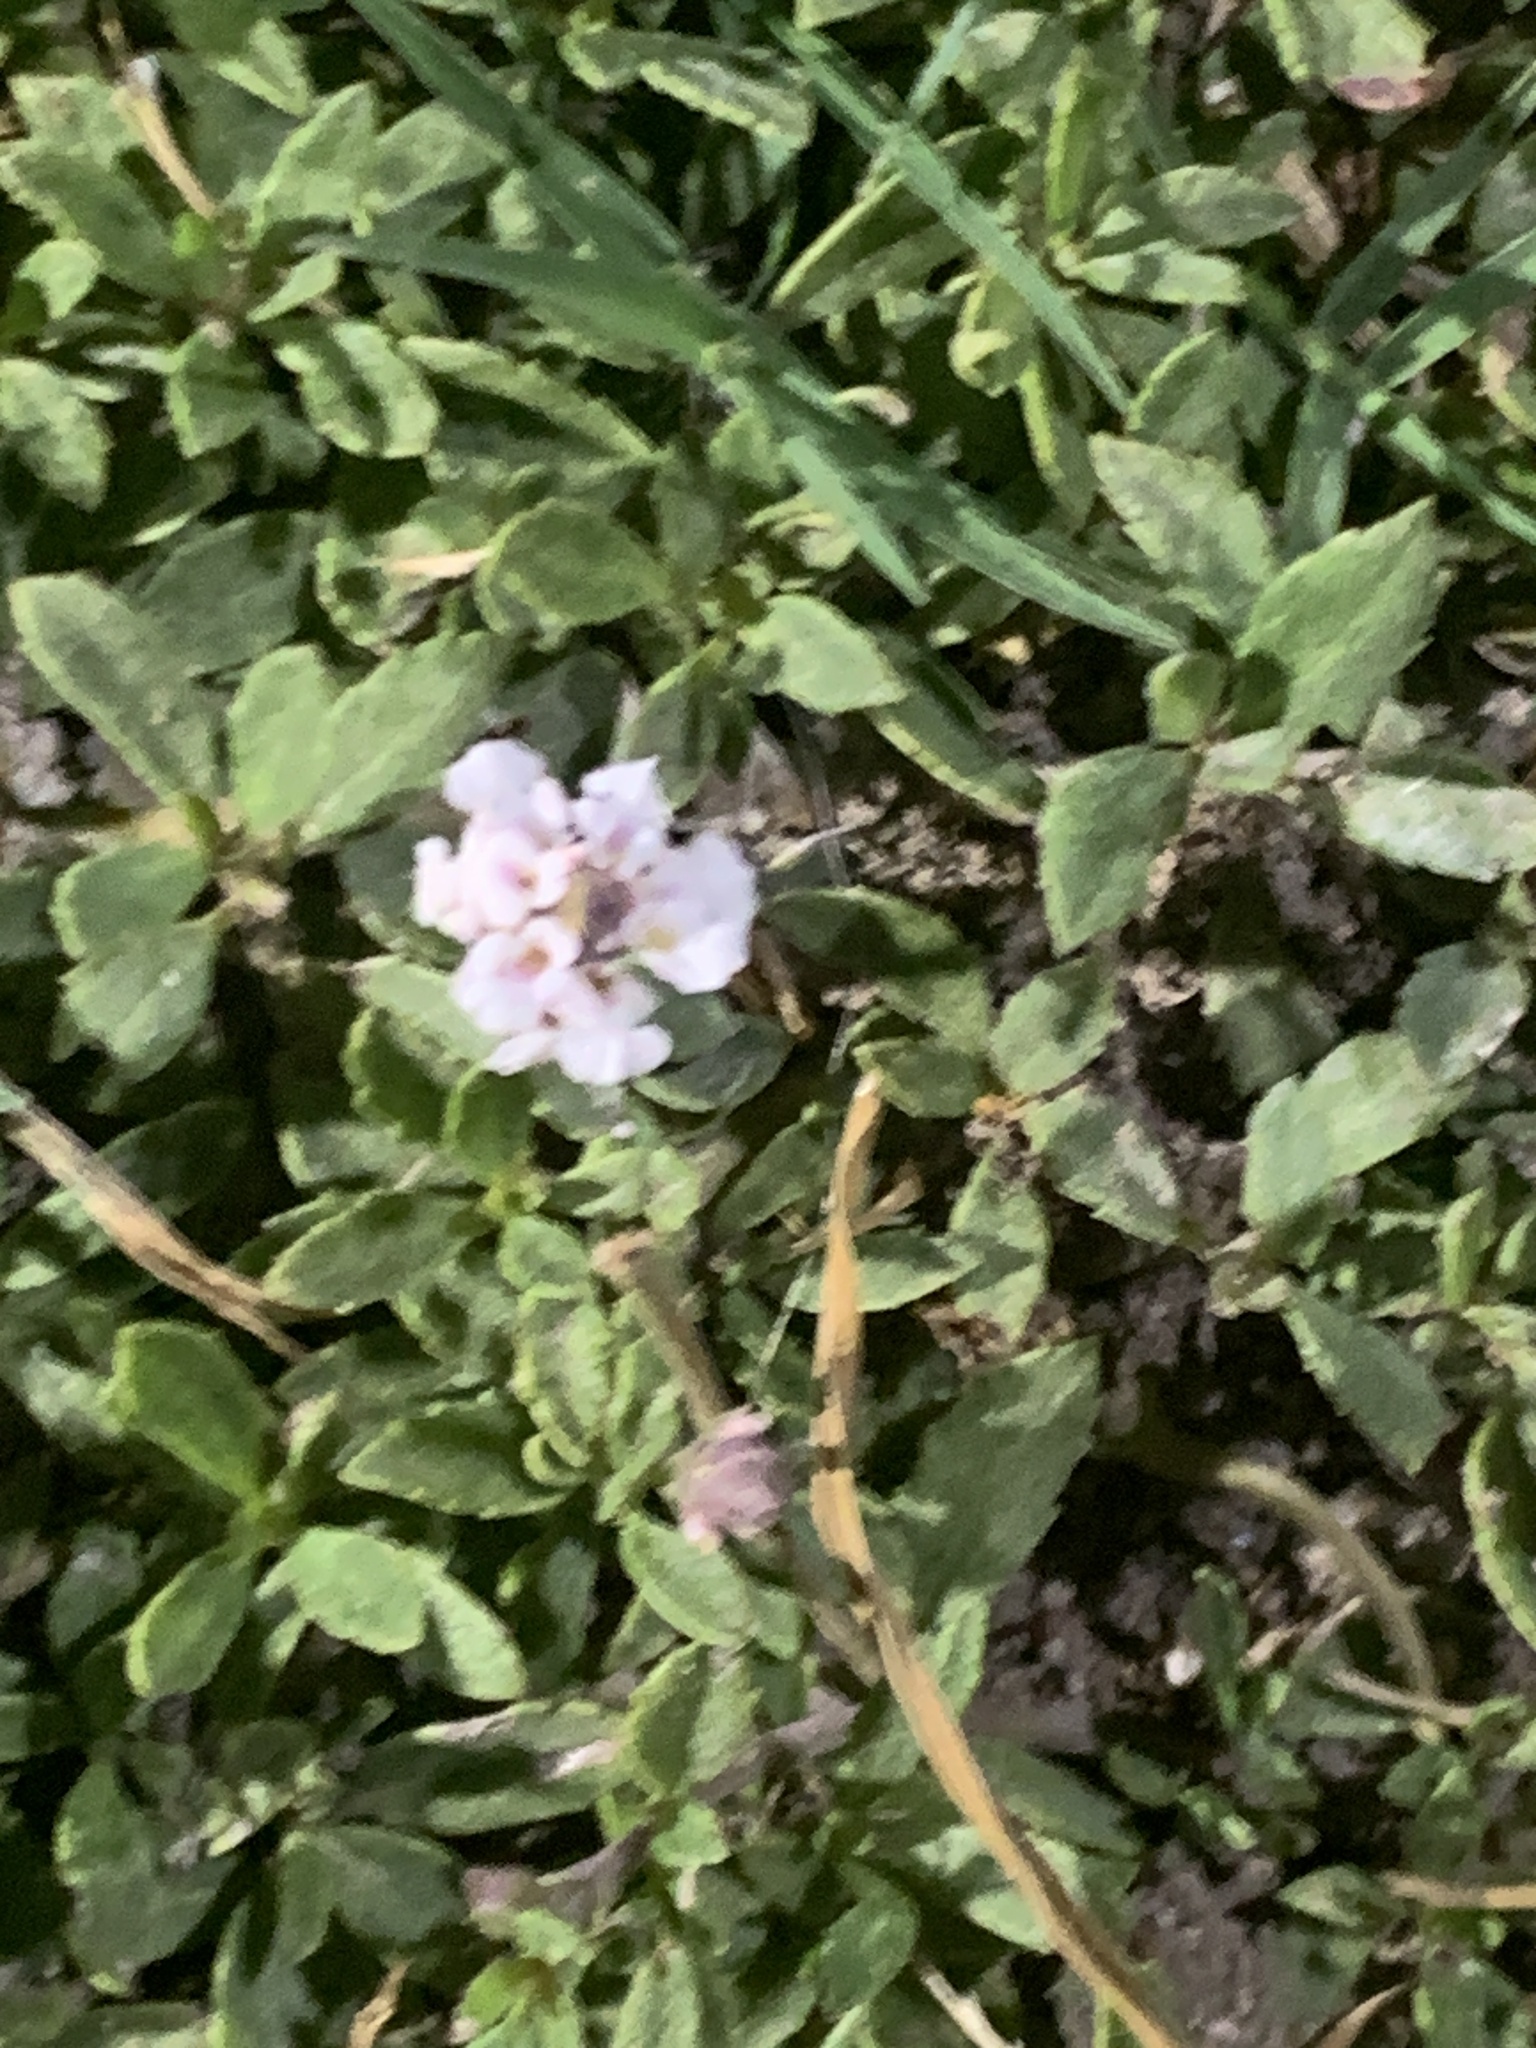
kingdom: Plantae
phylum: Tracheophyta
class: Magnoliopsida
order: Lamiales
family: Verbenaceae
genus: Phyla
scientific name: Phyla nodiflora
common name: Frogfruit
